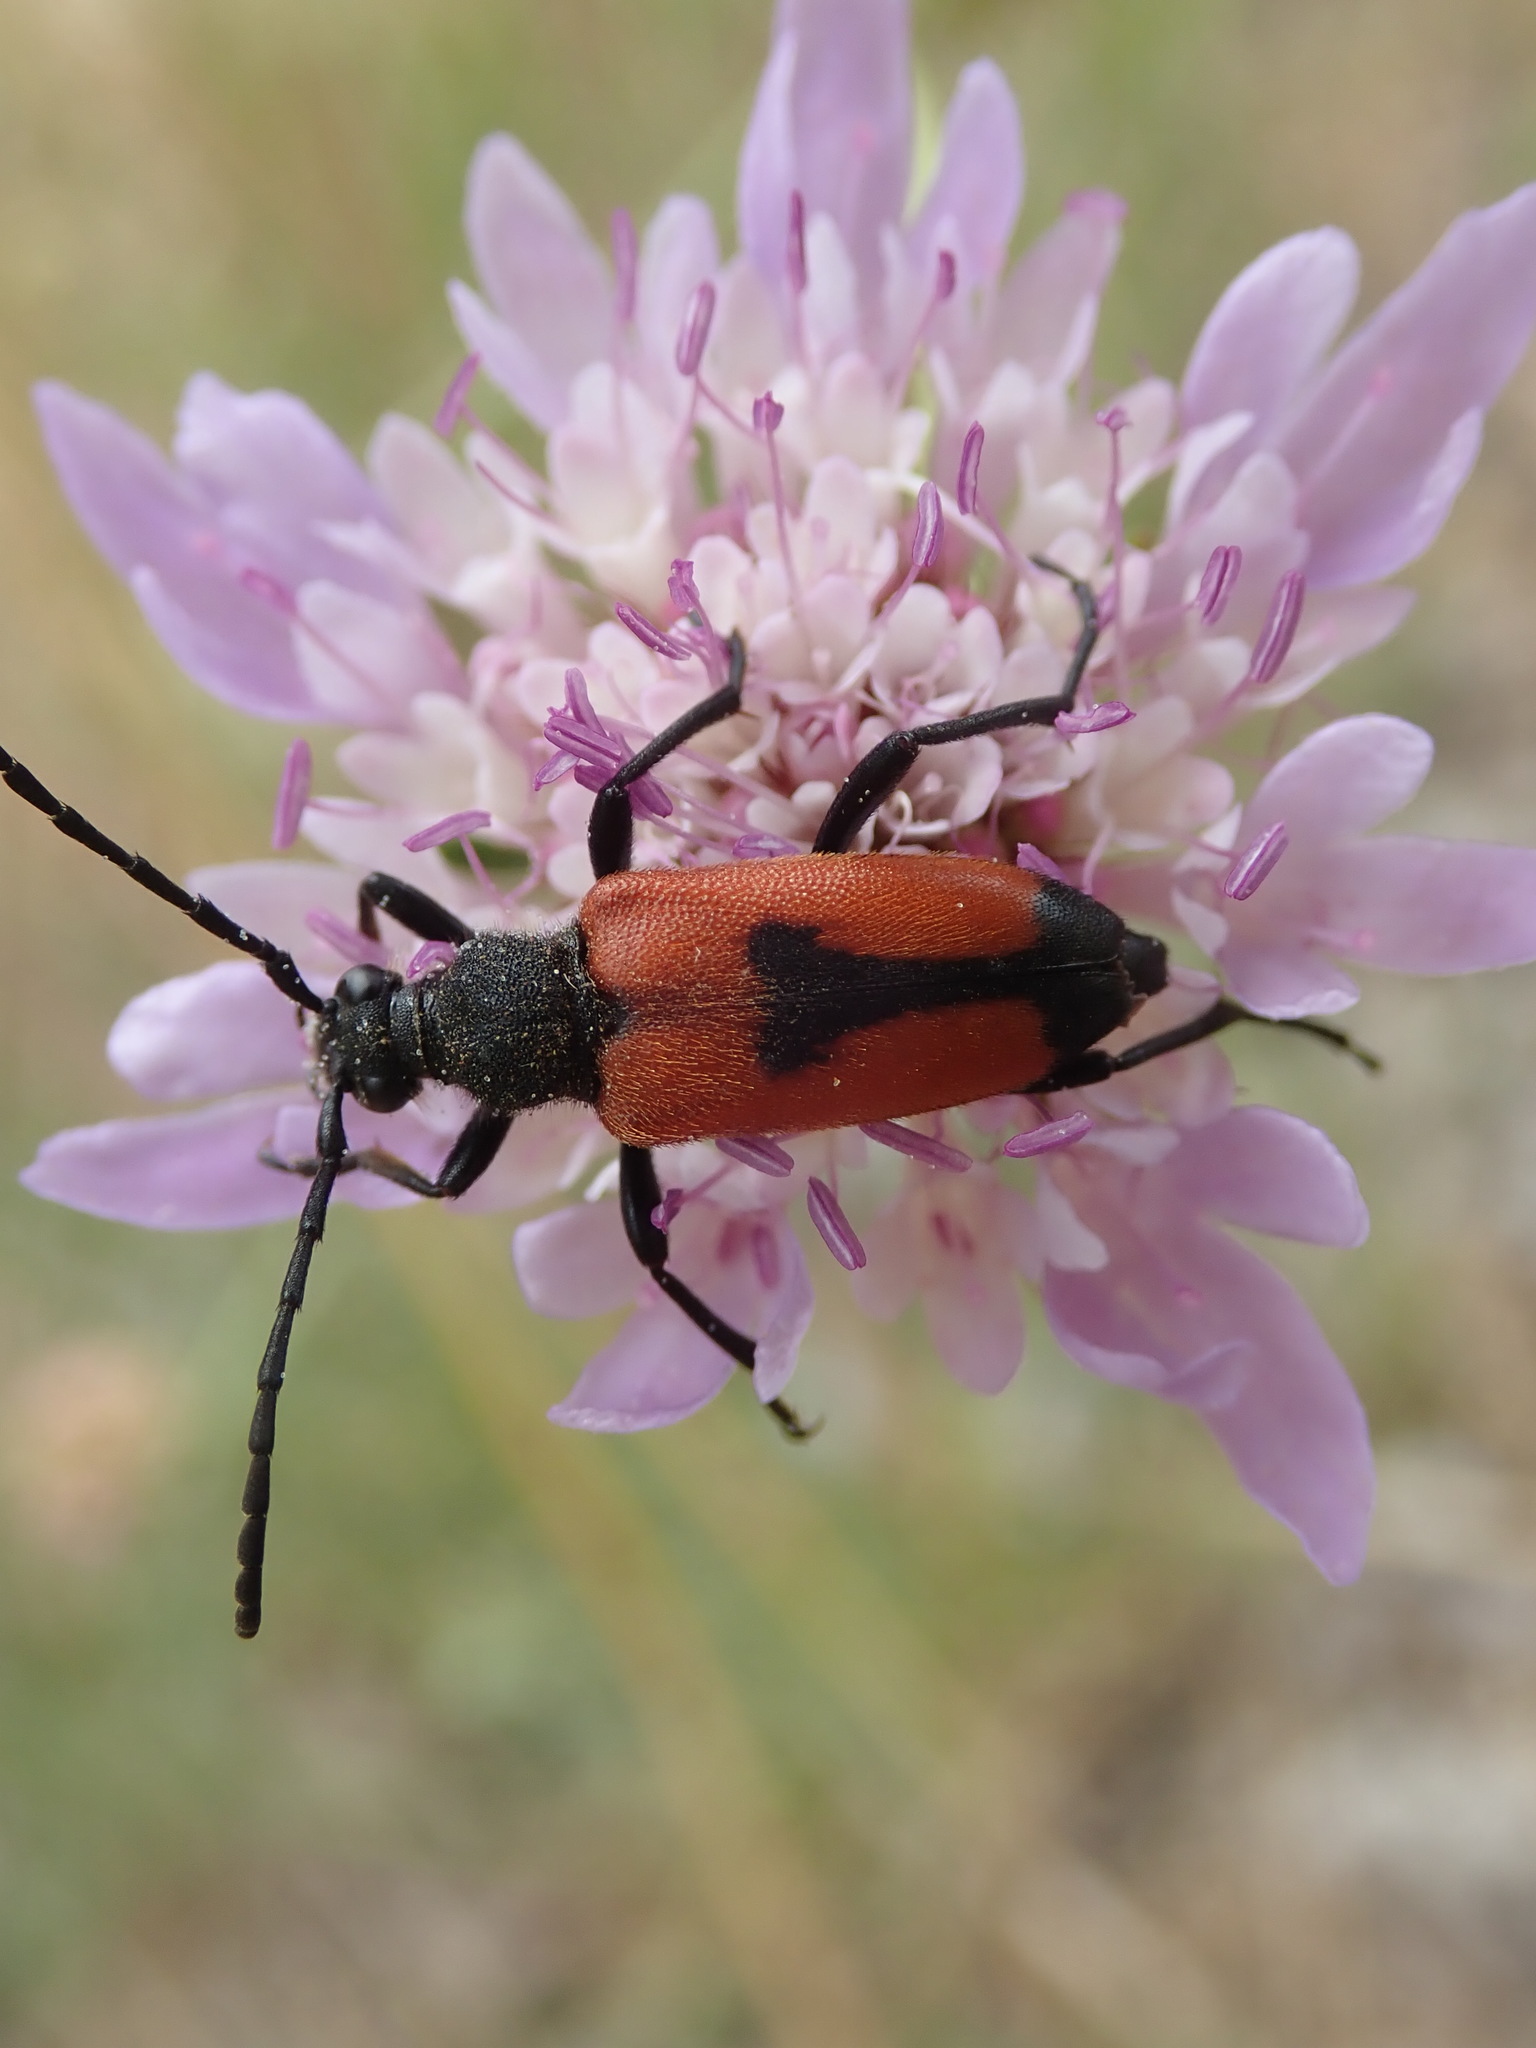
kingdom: Animalia
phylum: Arthropoda
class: Insecta
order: Coleoptera
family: Cerambycidae
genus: Stictoleptura
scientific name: Stictoleptura cordigera
